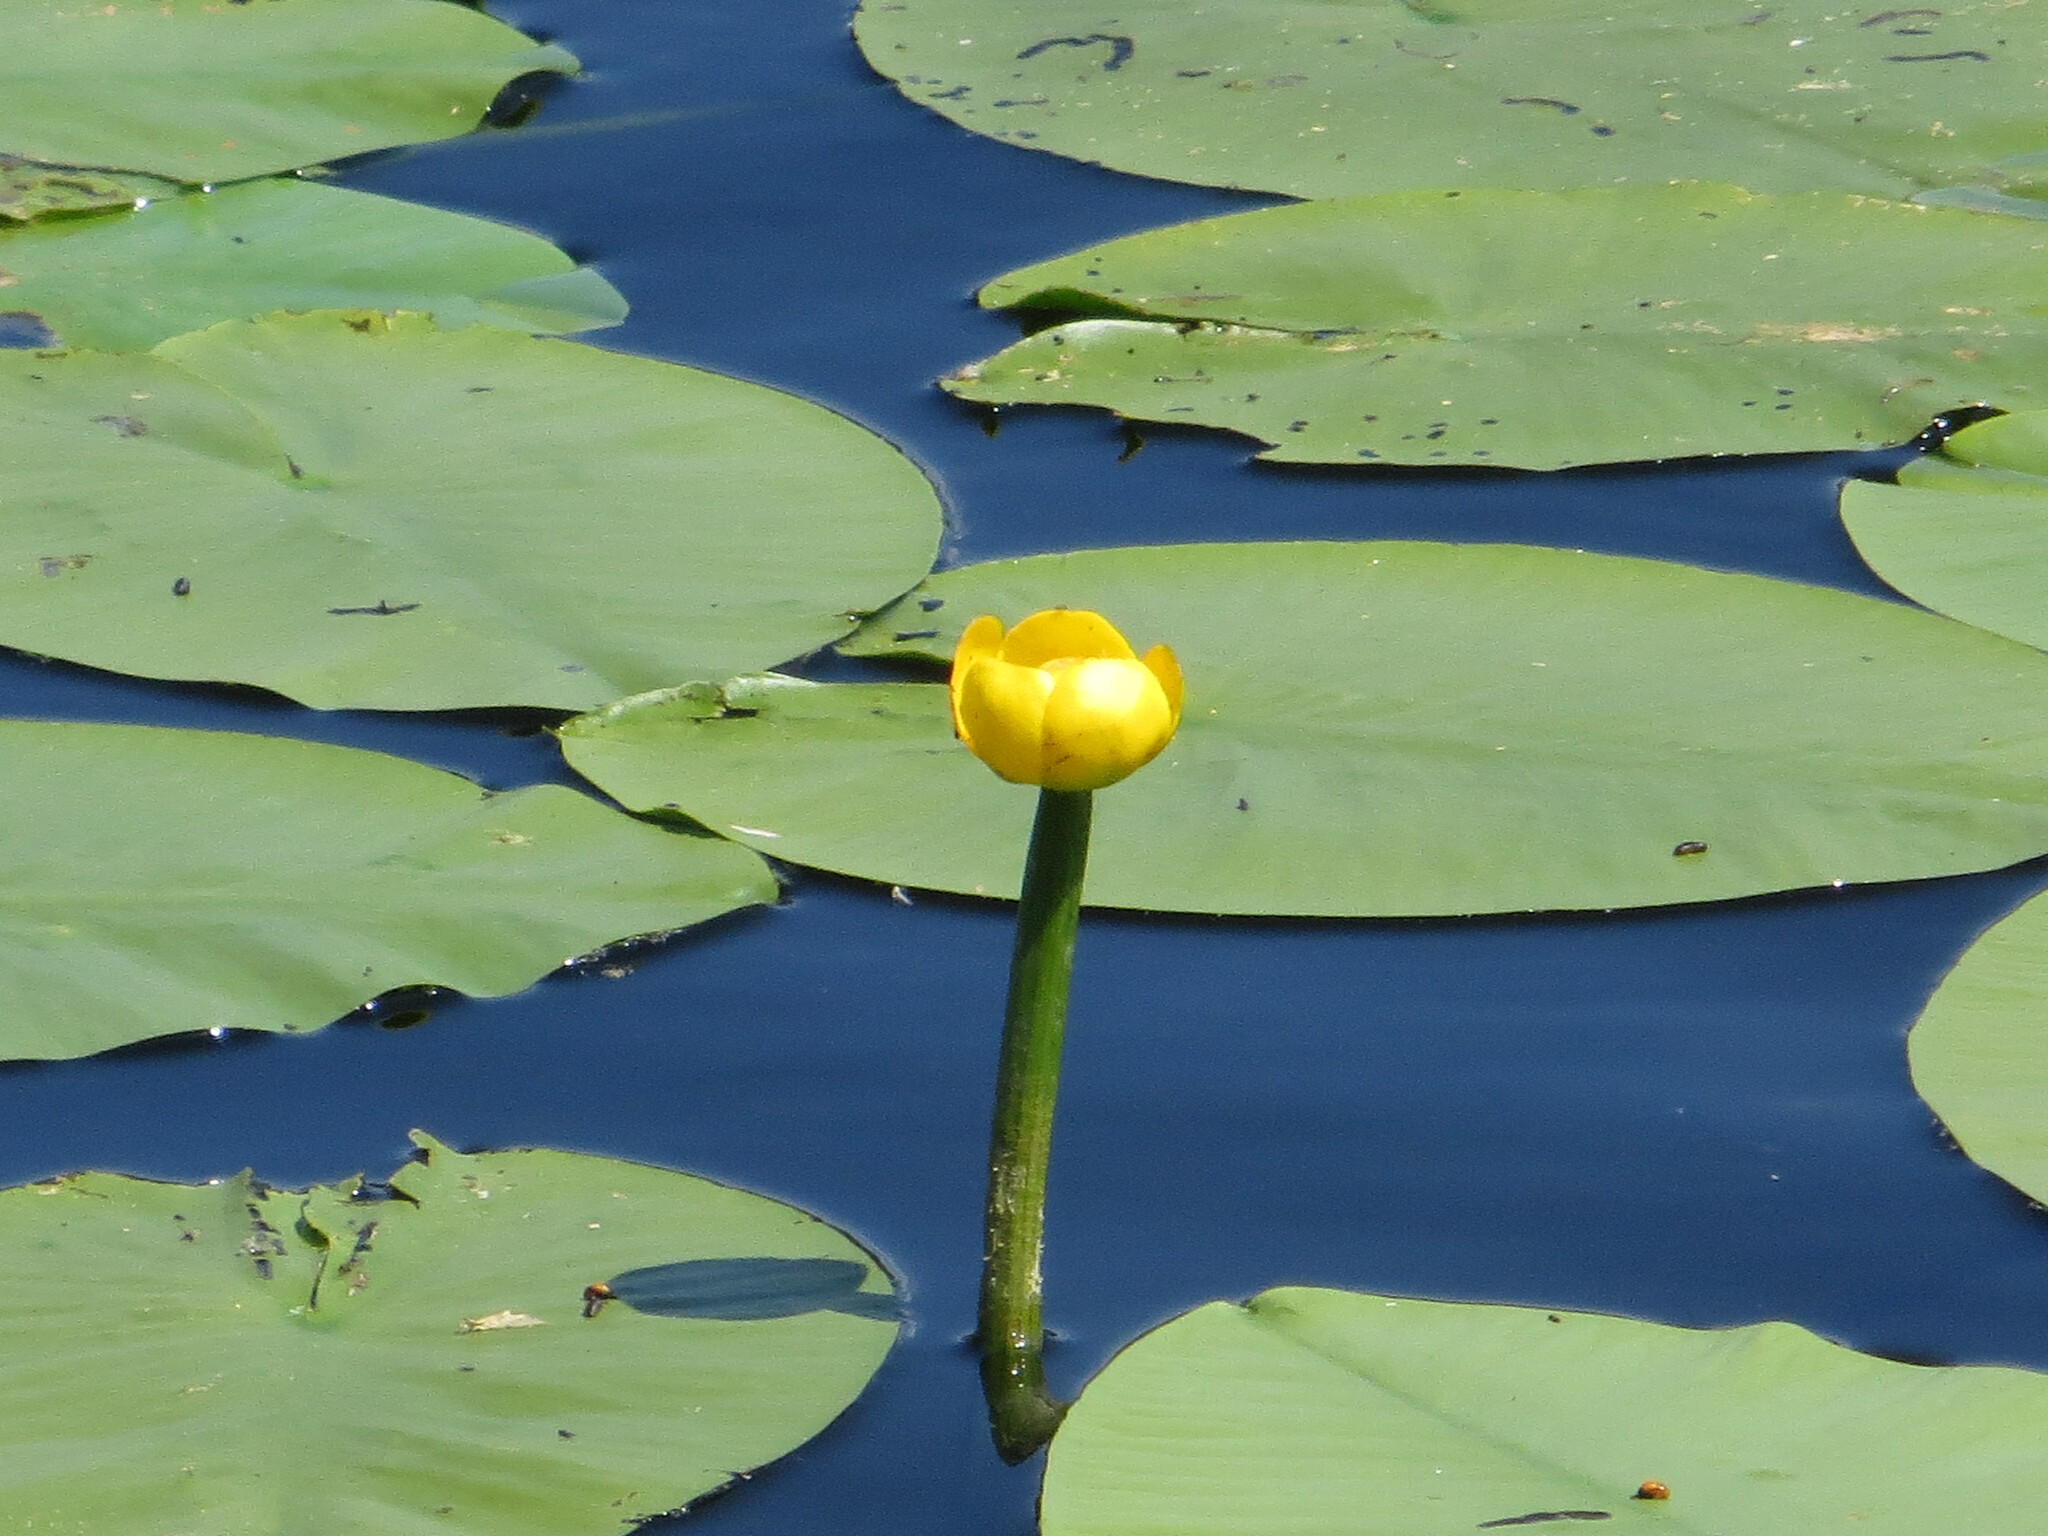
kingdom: Plantae
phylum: Tracheophyta
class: Magnoliopsida
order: Nymphaeales
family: Nymphaeaceae
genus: Nuphar
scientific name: Nuphar lutea
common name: Yellow water-lily
